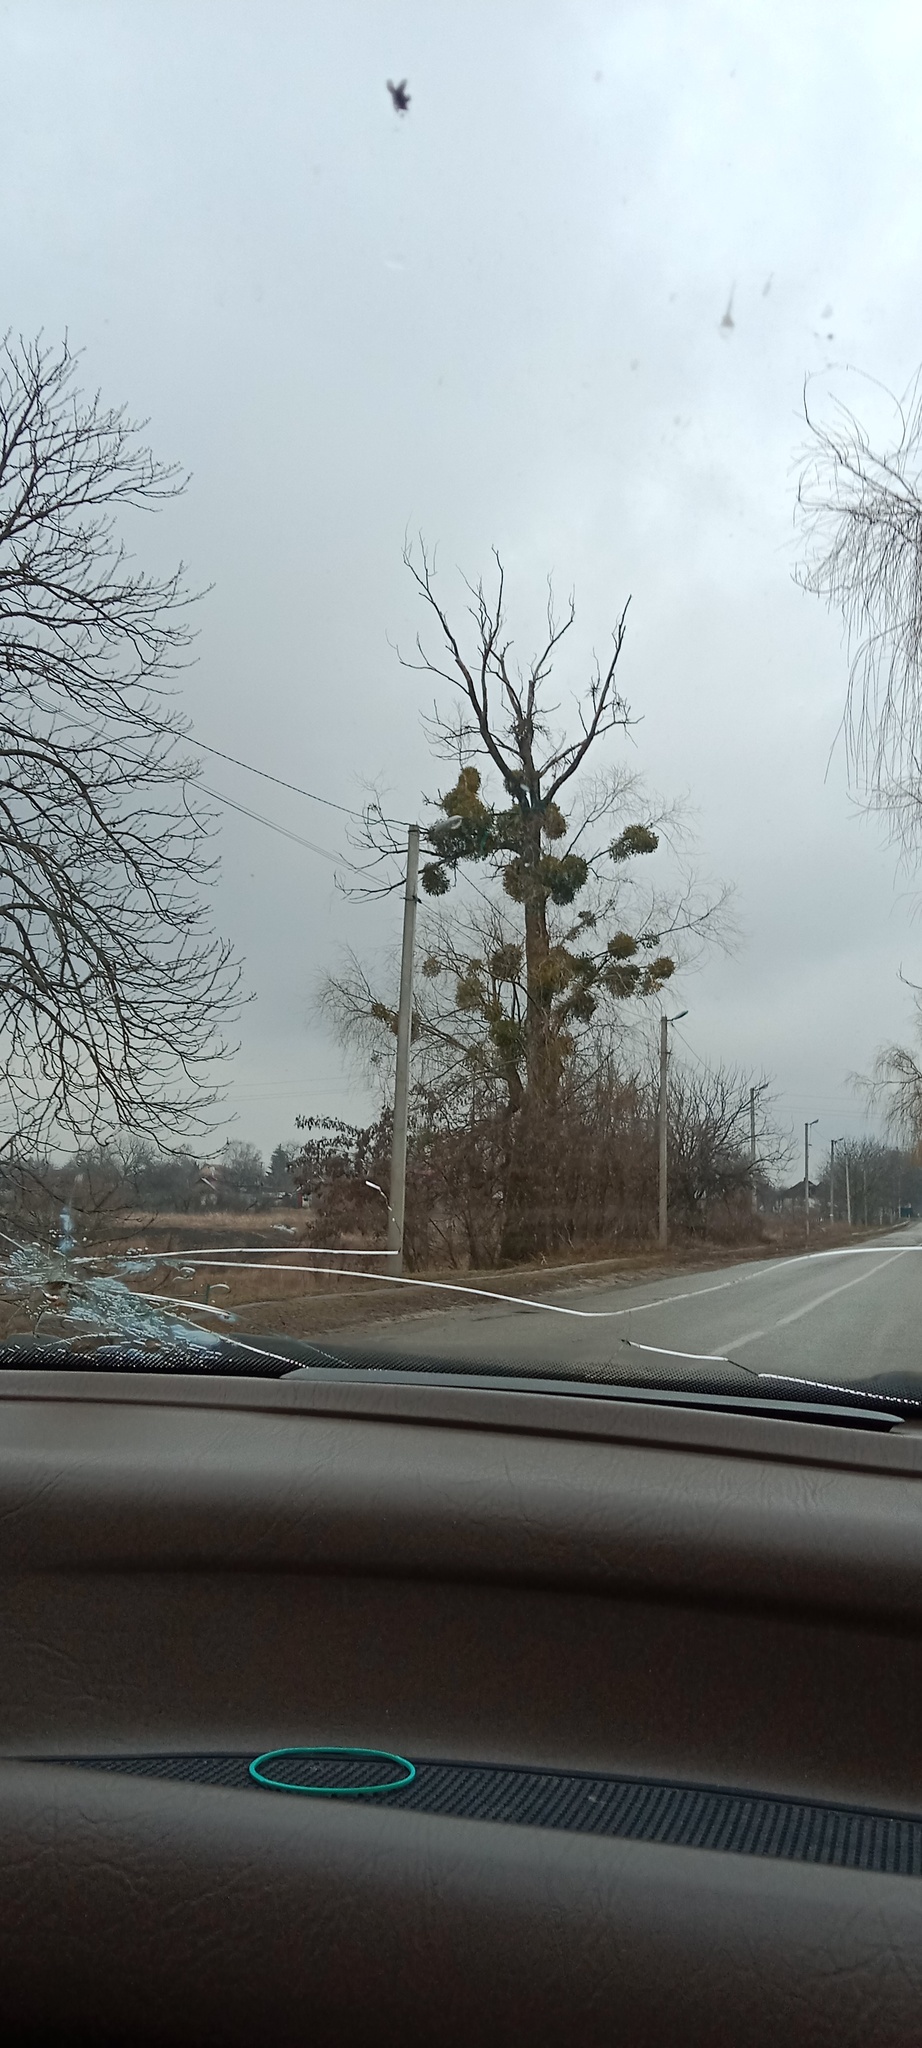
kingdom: Plantae
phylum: Tracheophyta
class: Magnoliopsida
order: Santalales
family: Viscaceae
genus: Viscum
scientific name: Viscum album
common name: Mistletoe
